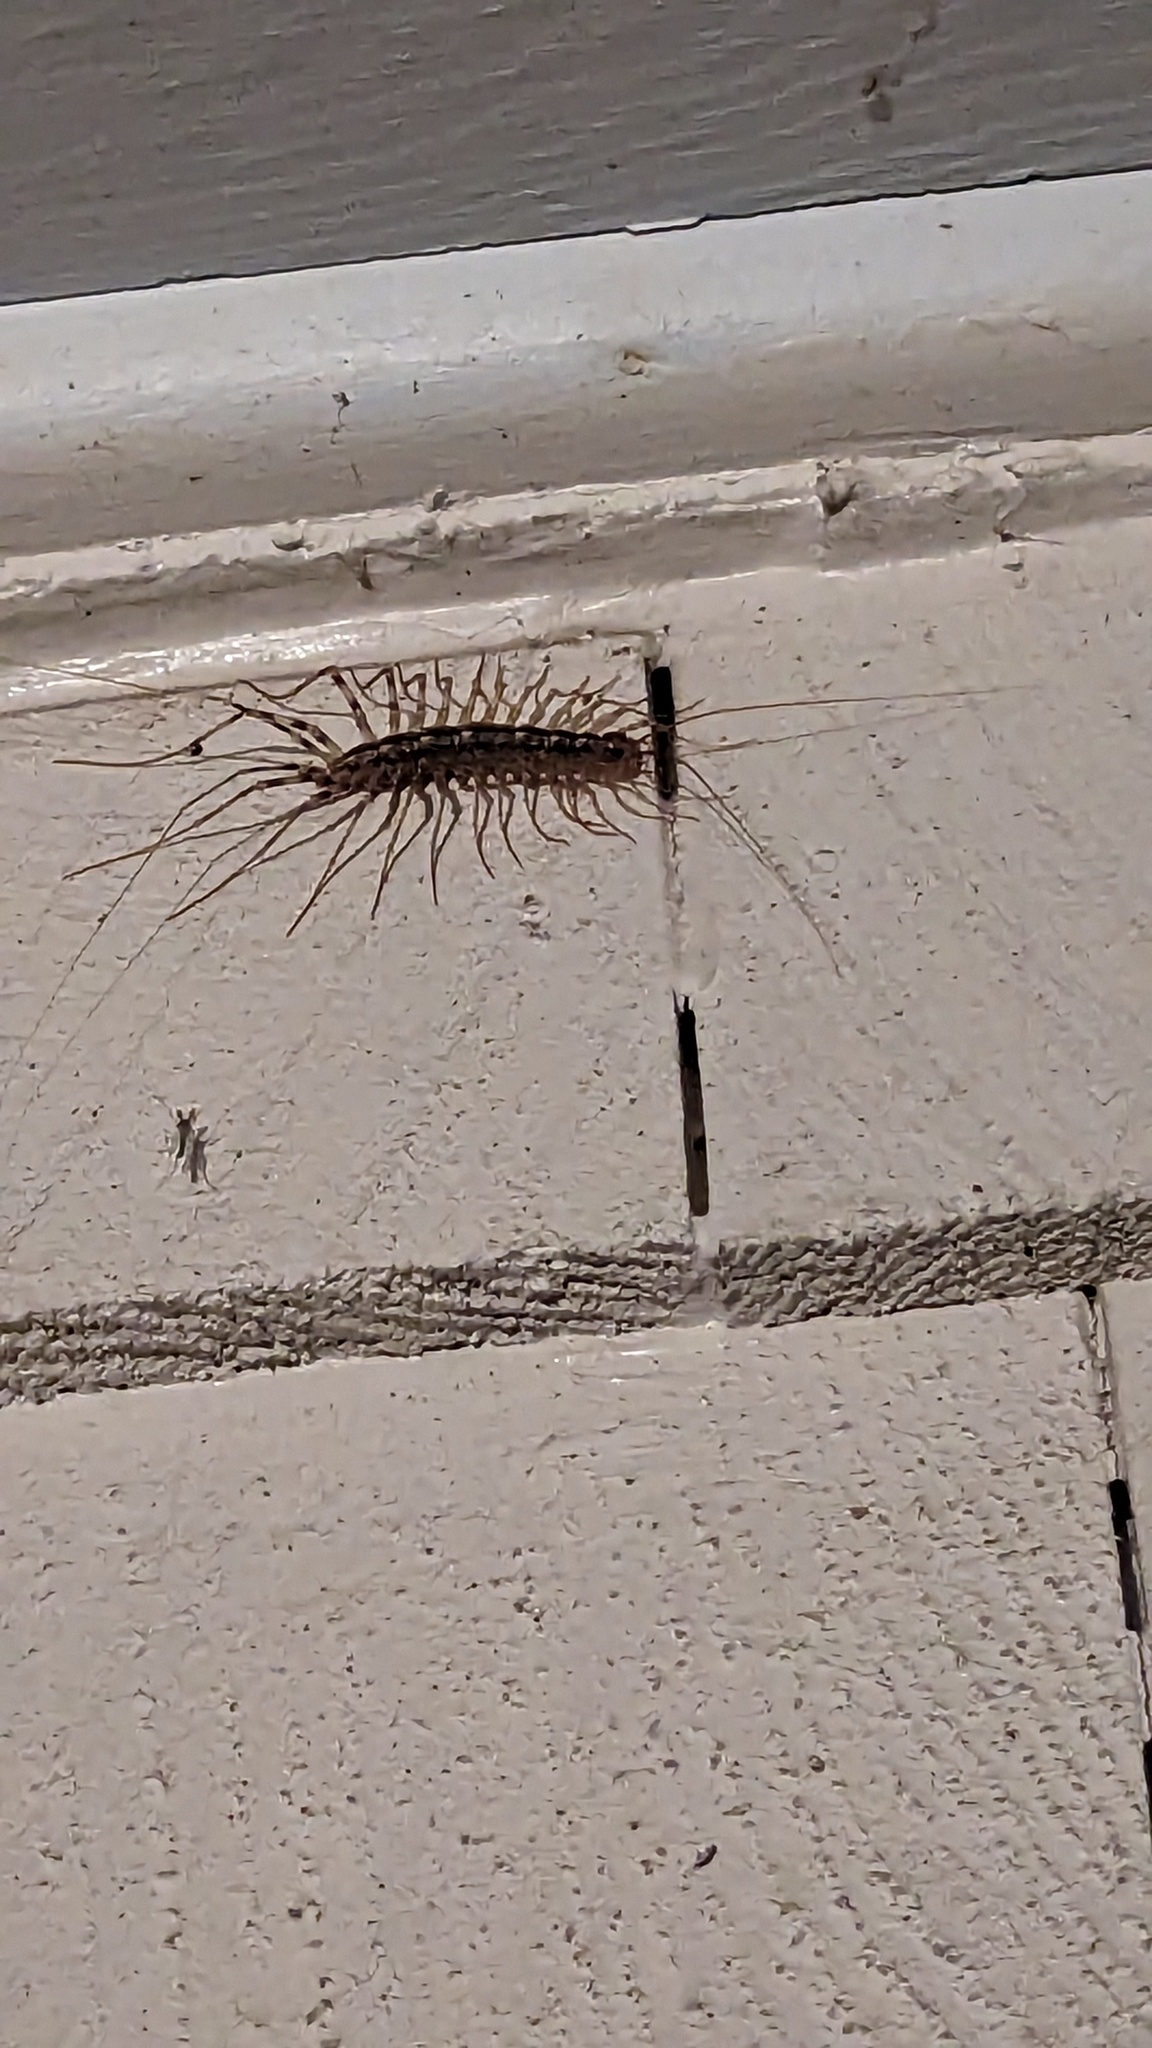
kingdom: Animalia
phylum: Arthropoda
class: Chilopoda
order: Scutigeromorpha
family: Scutigeridae
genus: Scutigera
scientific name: Scutigera coleoptrata
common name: House centipede
